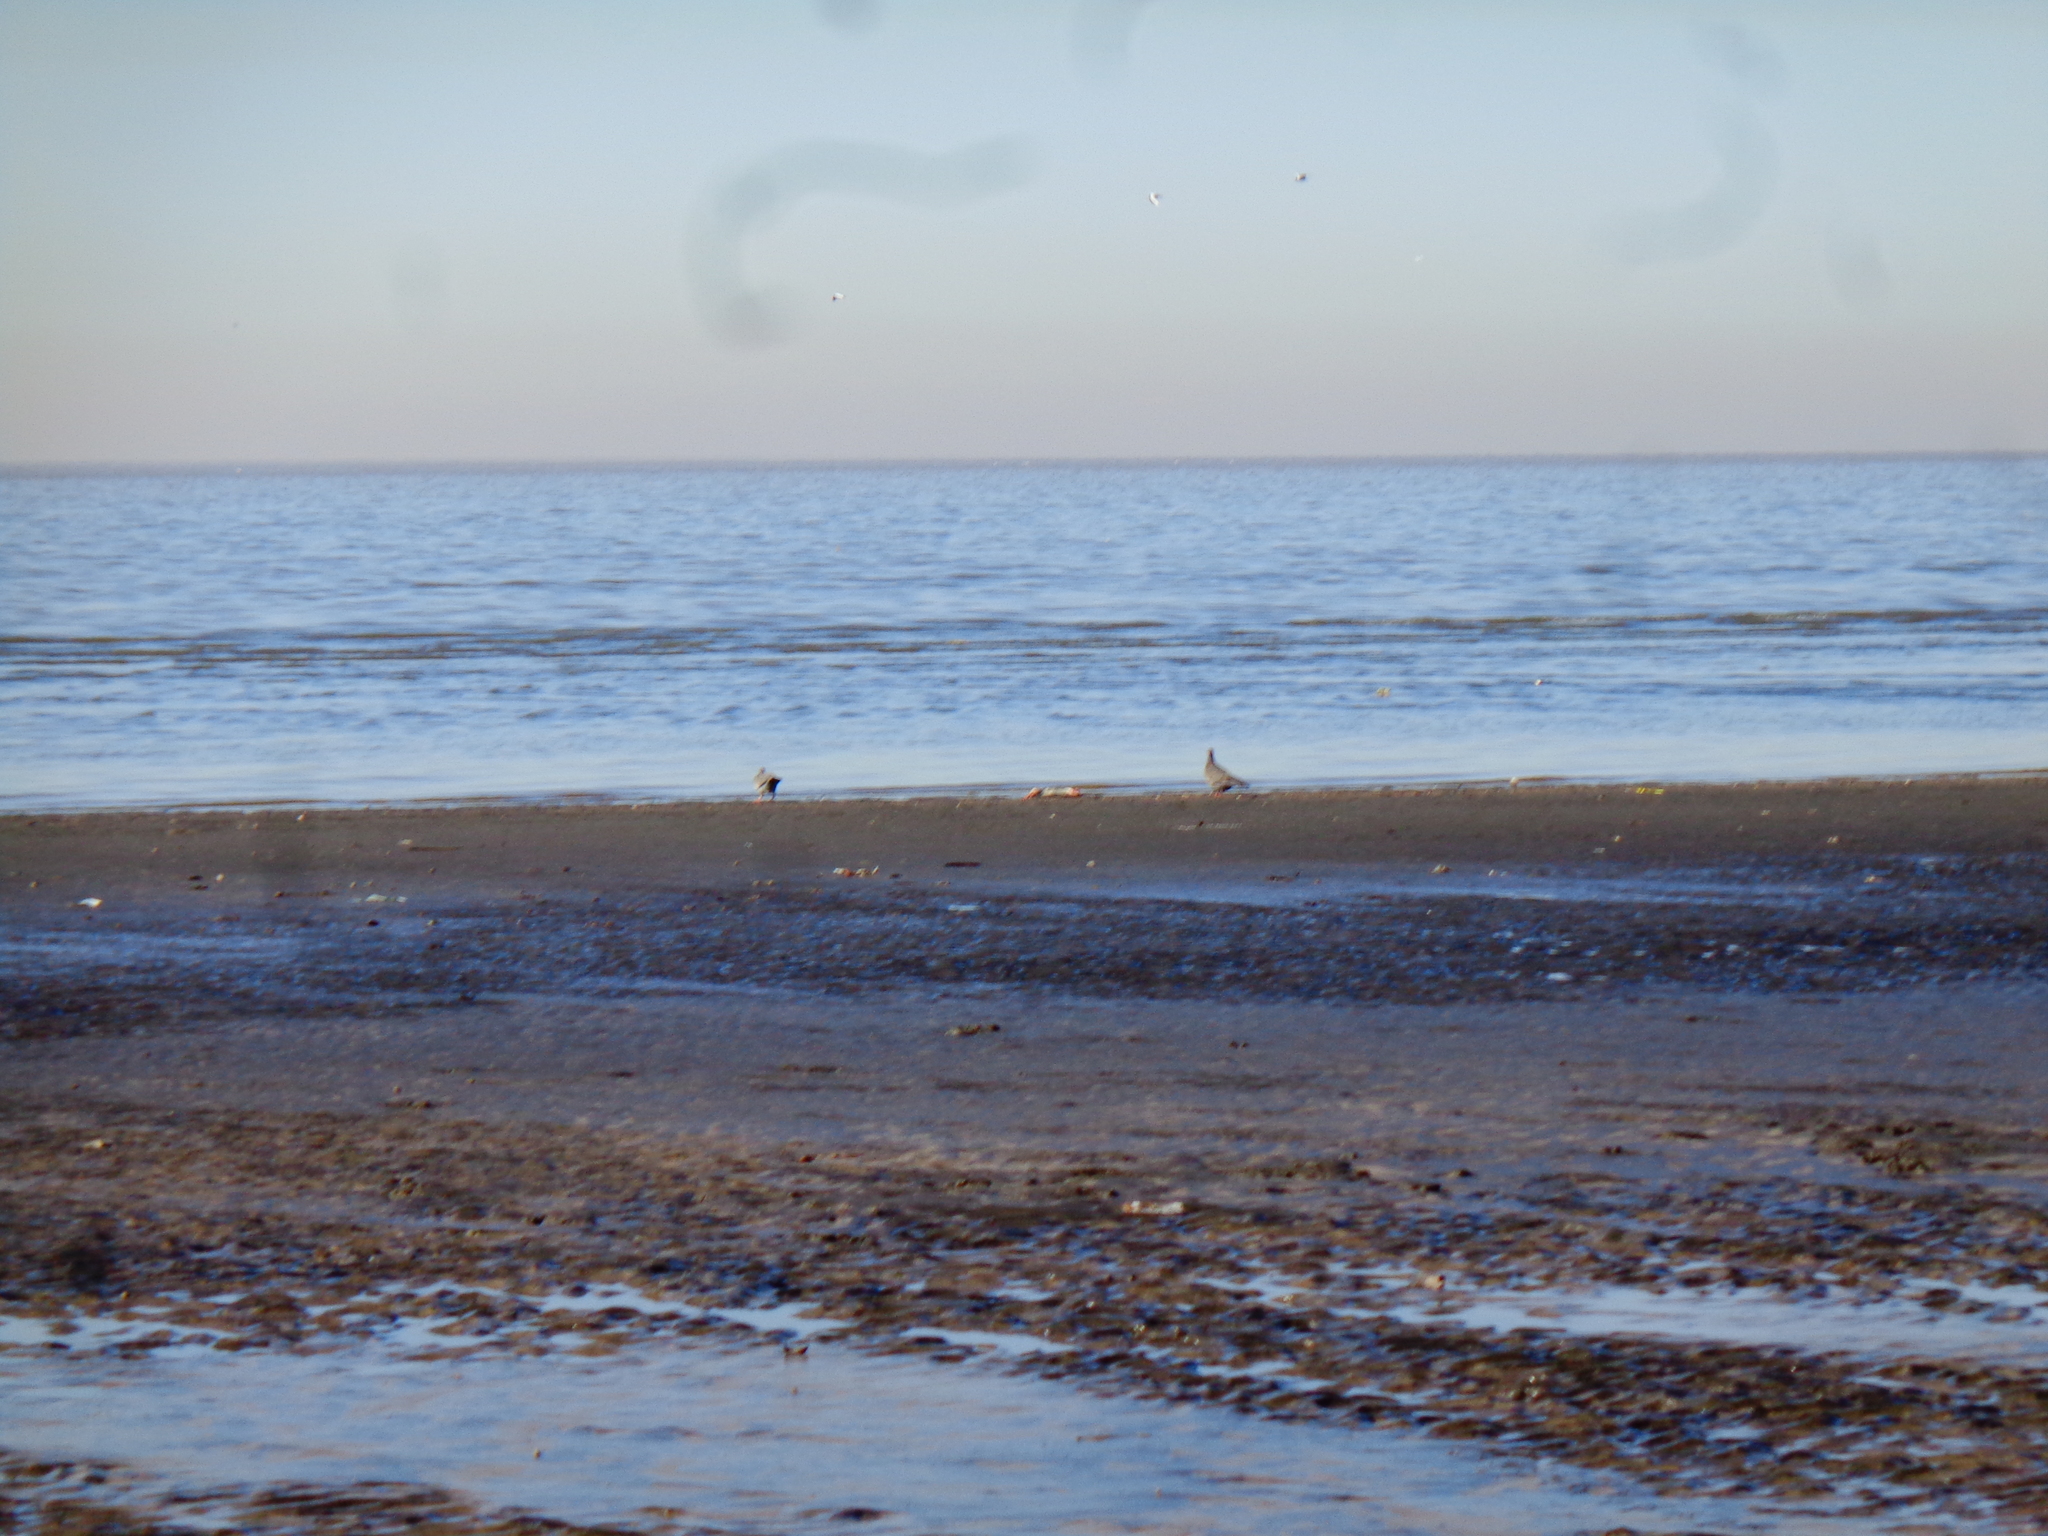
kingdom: Animalia
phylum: Chordata
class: Aves
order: Columbiformes
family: Columbidae
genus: Patagioenas
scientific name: Patagioenas picazuro
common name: Picazuro pigeon
